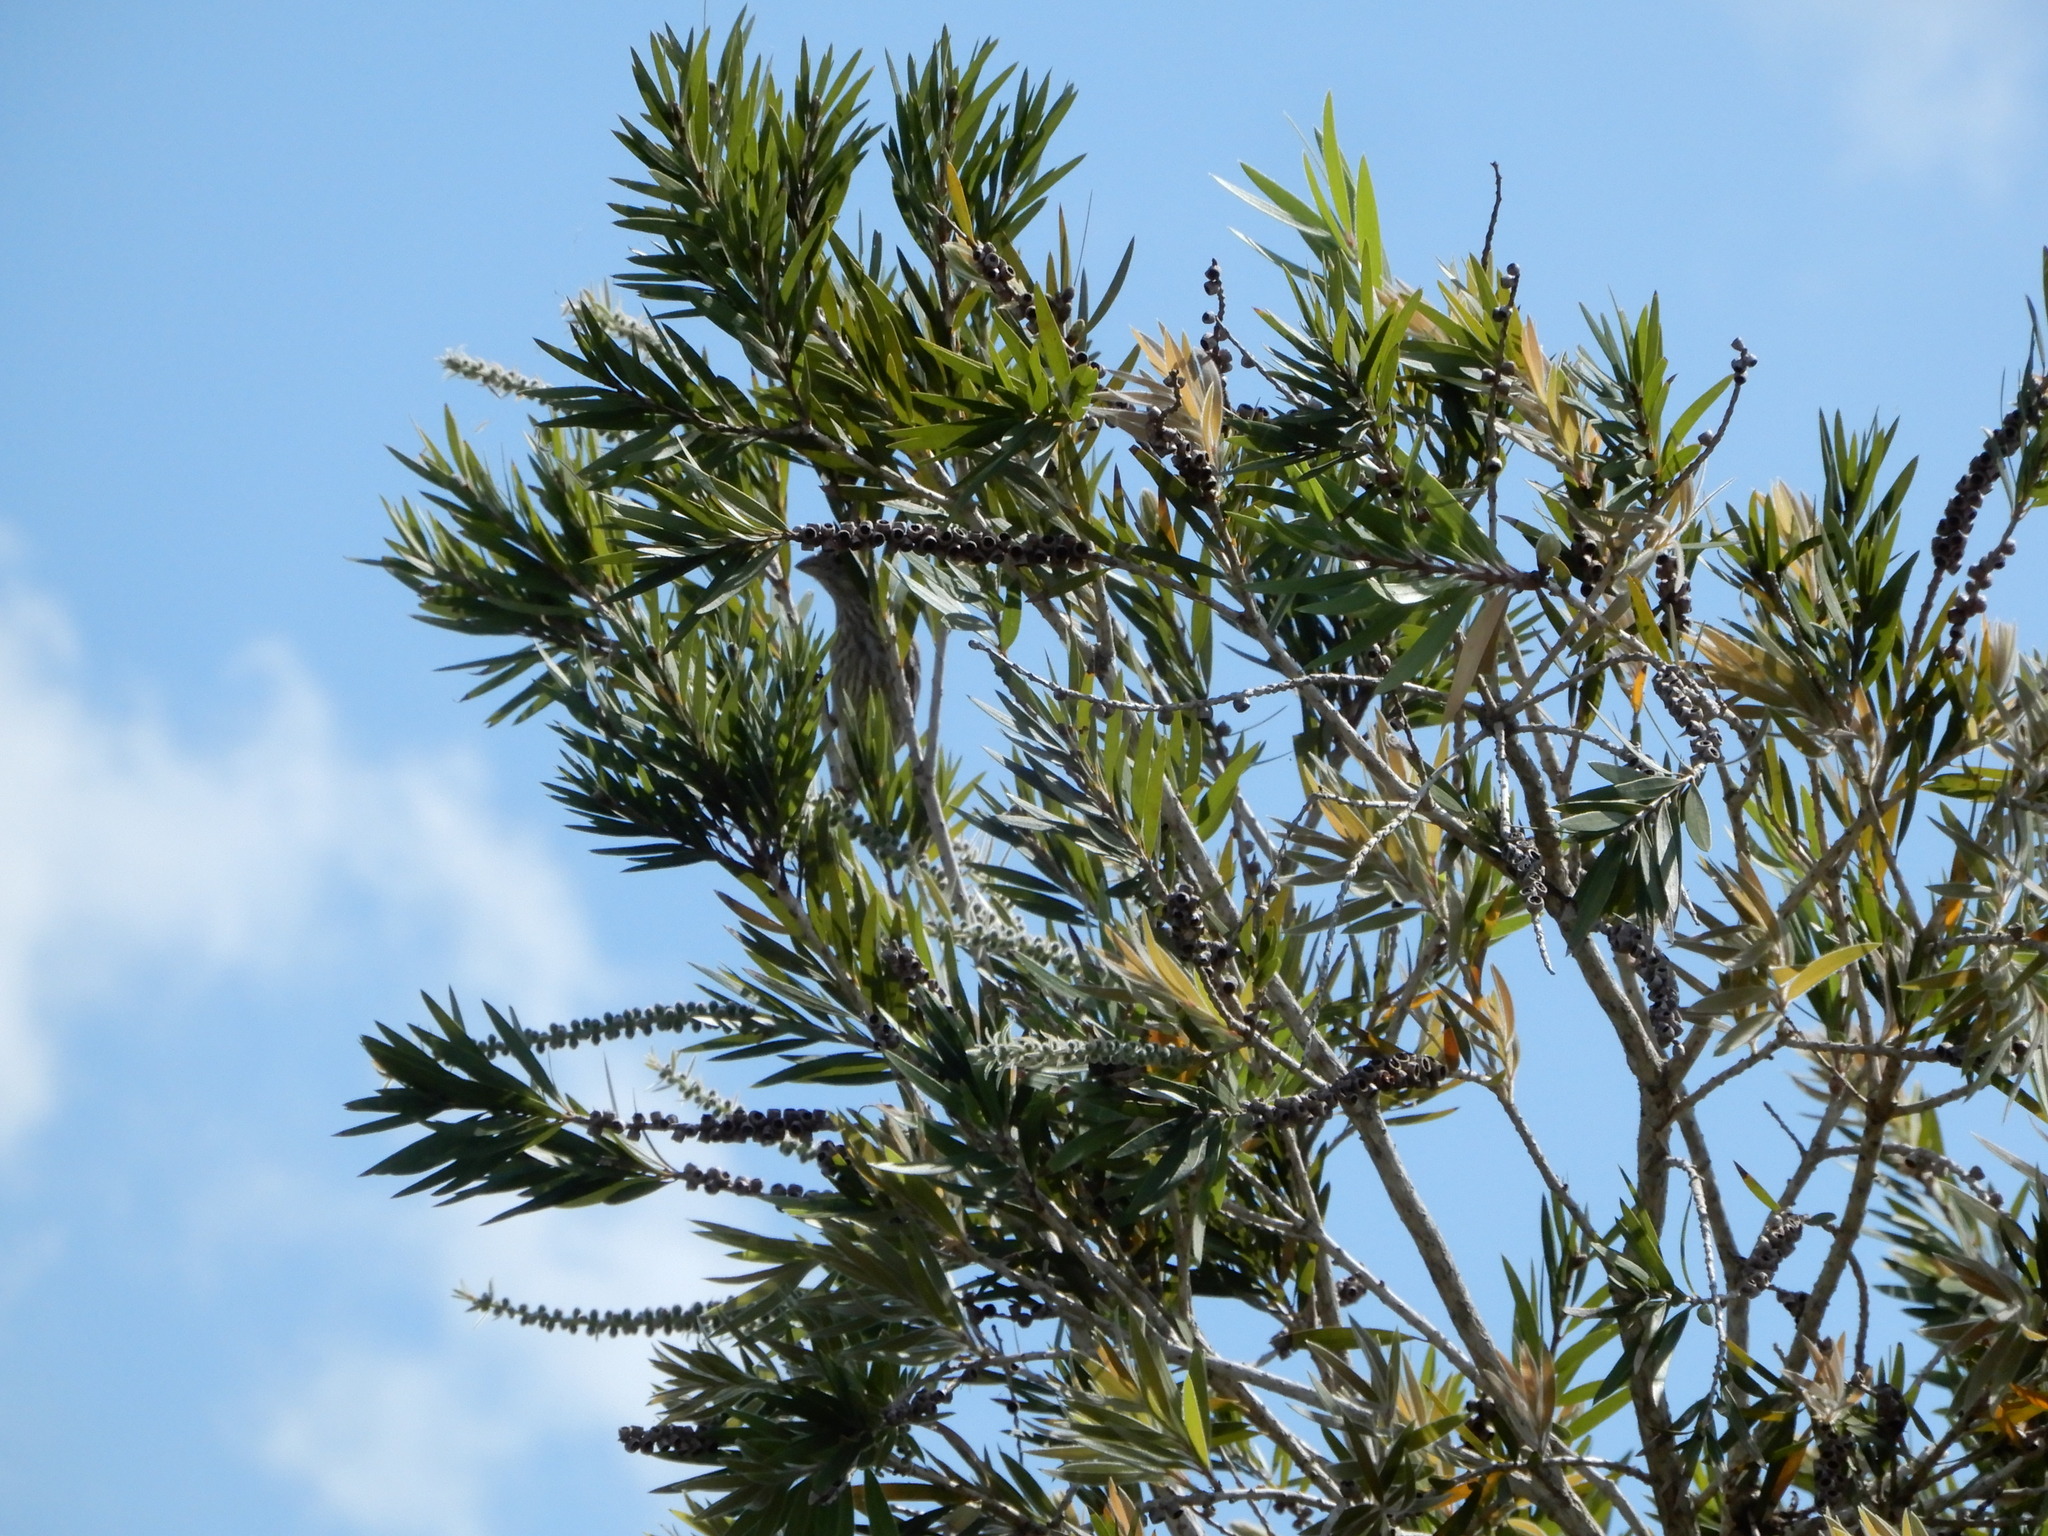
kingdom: Animalia
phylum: Chordata
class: Aves
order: Passeriformes
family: Fringillidae
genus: Haemorhous
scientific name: Haemorhous mexicanus
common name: House finch
